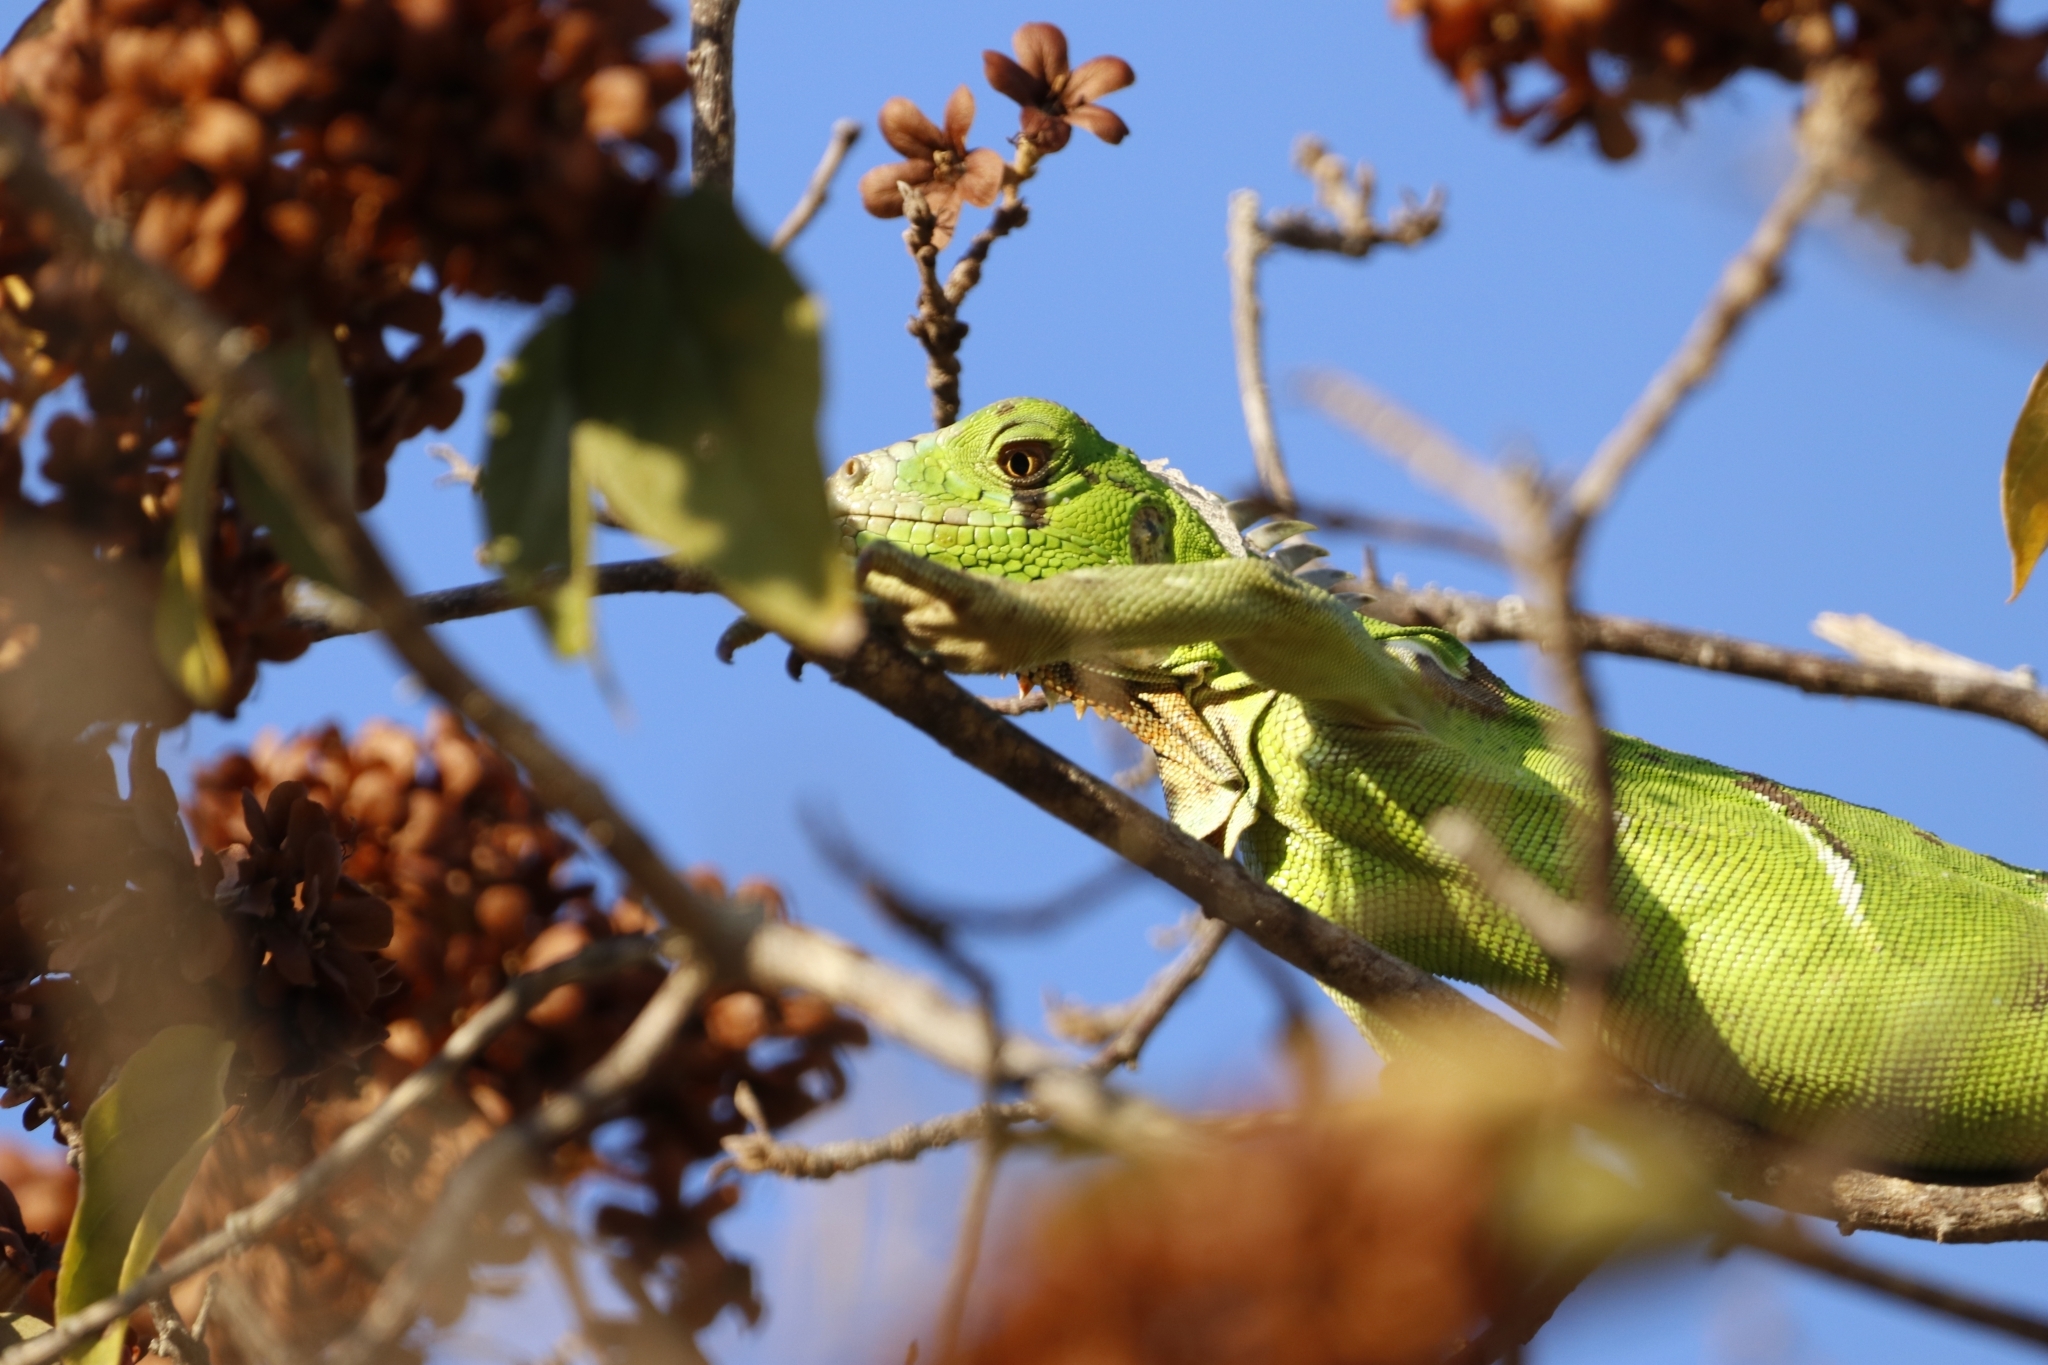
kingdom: Animalia
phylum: Chordata
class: Squamata
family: Iguanidae
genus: Iguana
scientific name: Iguana iguana
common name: Green iguana
